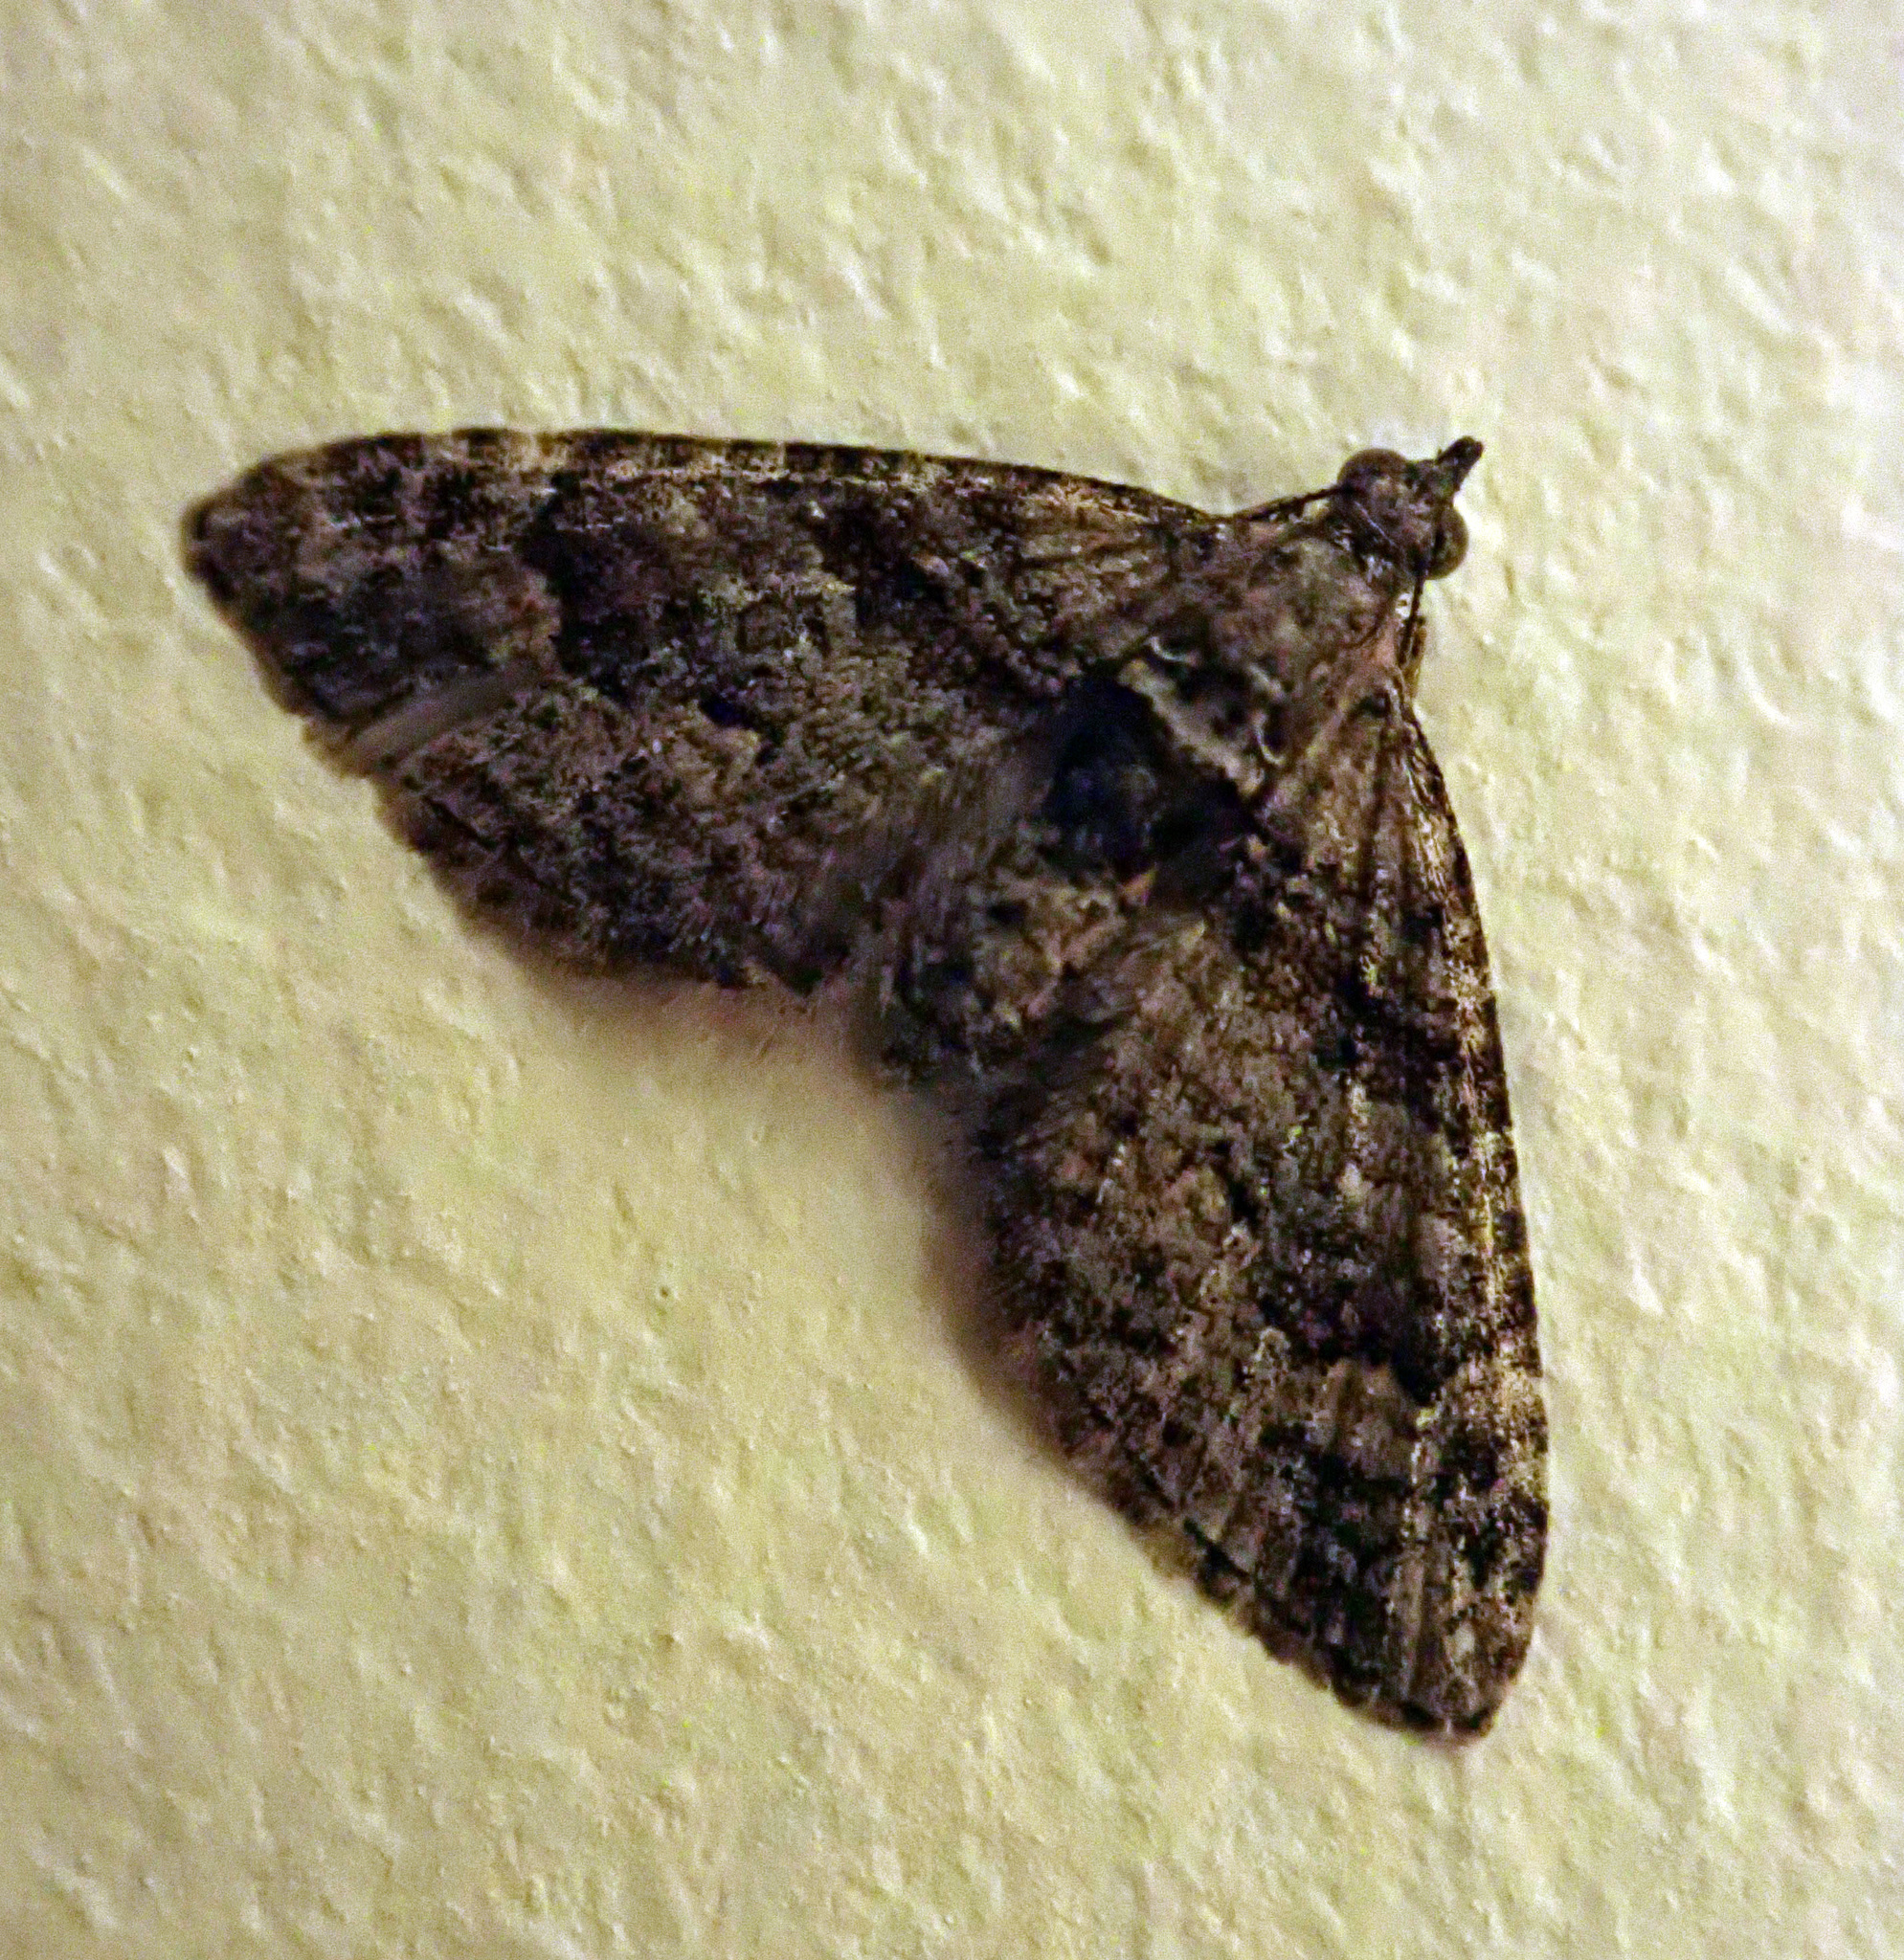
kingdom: Animalia
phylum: Arthropoda
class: Insecta
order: Lepidoptera
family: Geometridae
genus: Phrissogonus
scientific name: Phrissogonus laticostata
